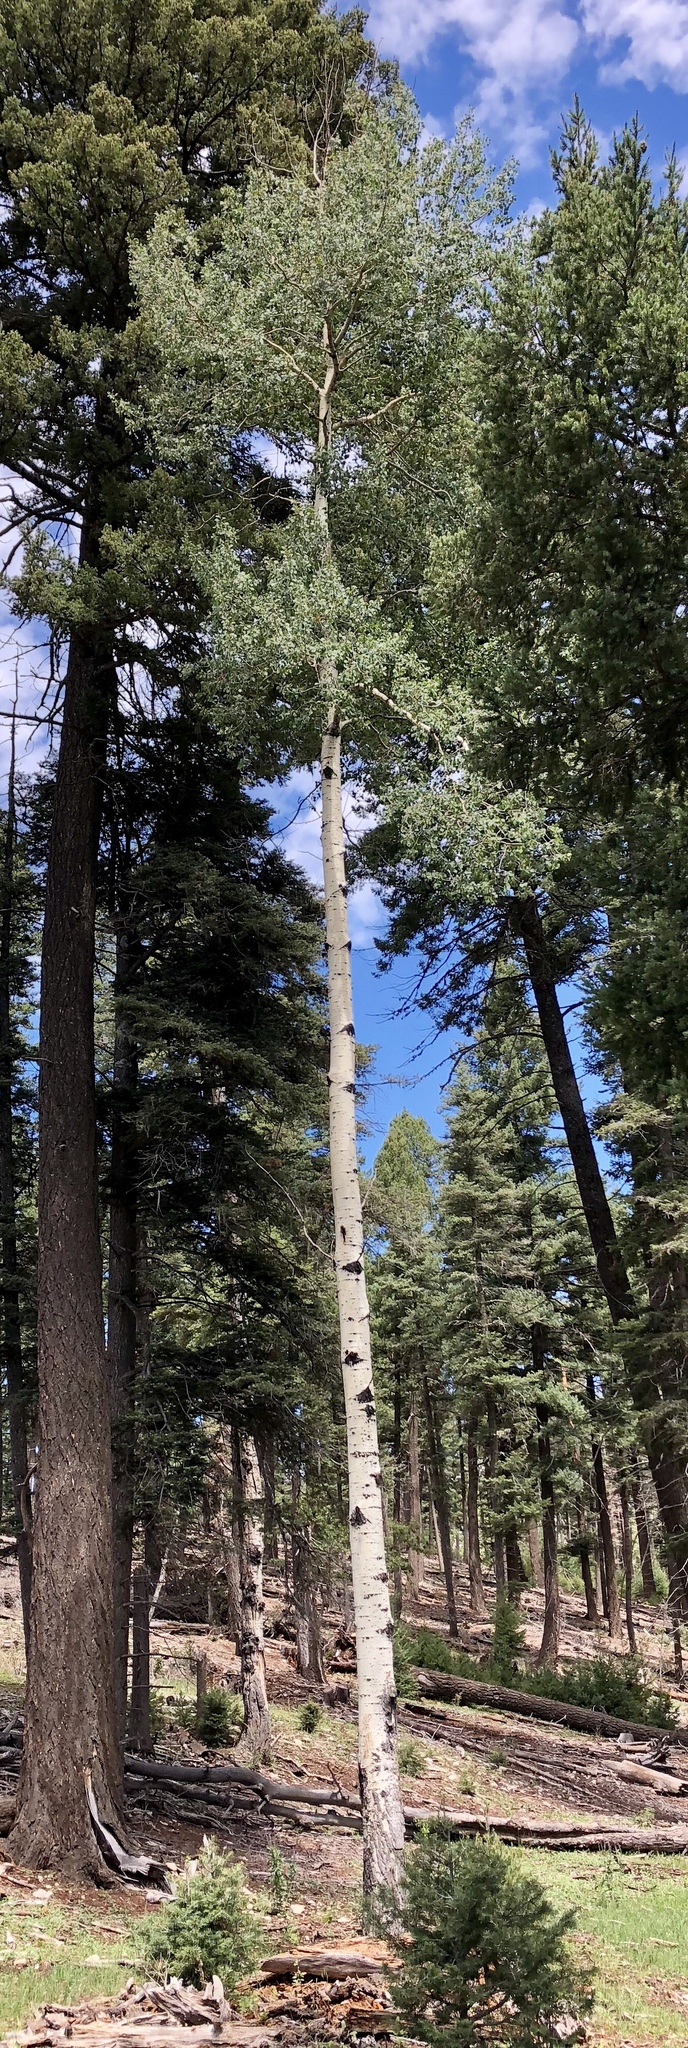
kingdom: Plantae
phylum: Tracheophyta
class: Magnoliopsida
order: Malpighiales
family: Salicaceae
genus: Populus
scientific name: Populus tremuloides
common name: Quaking aspen
